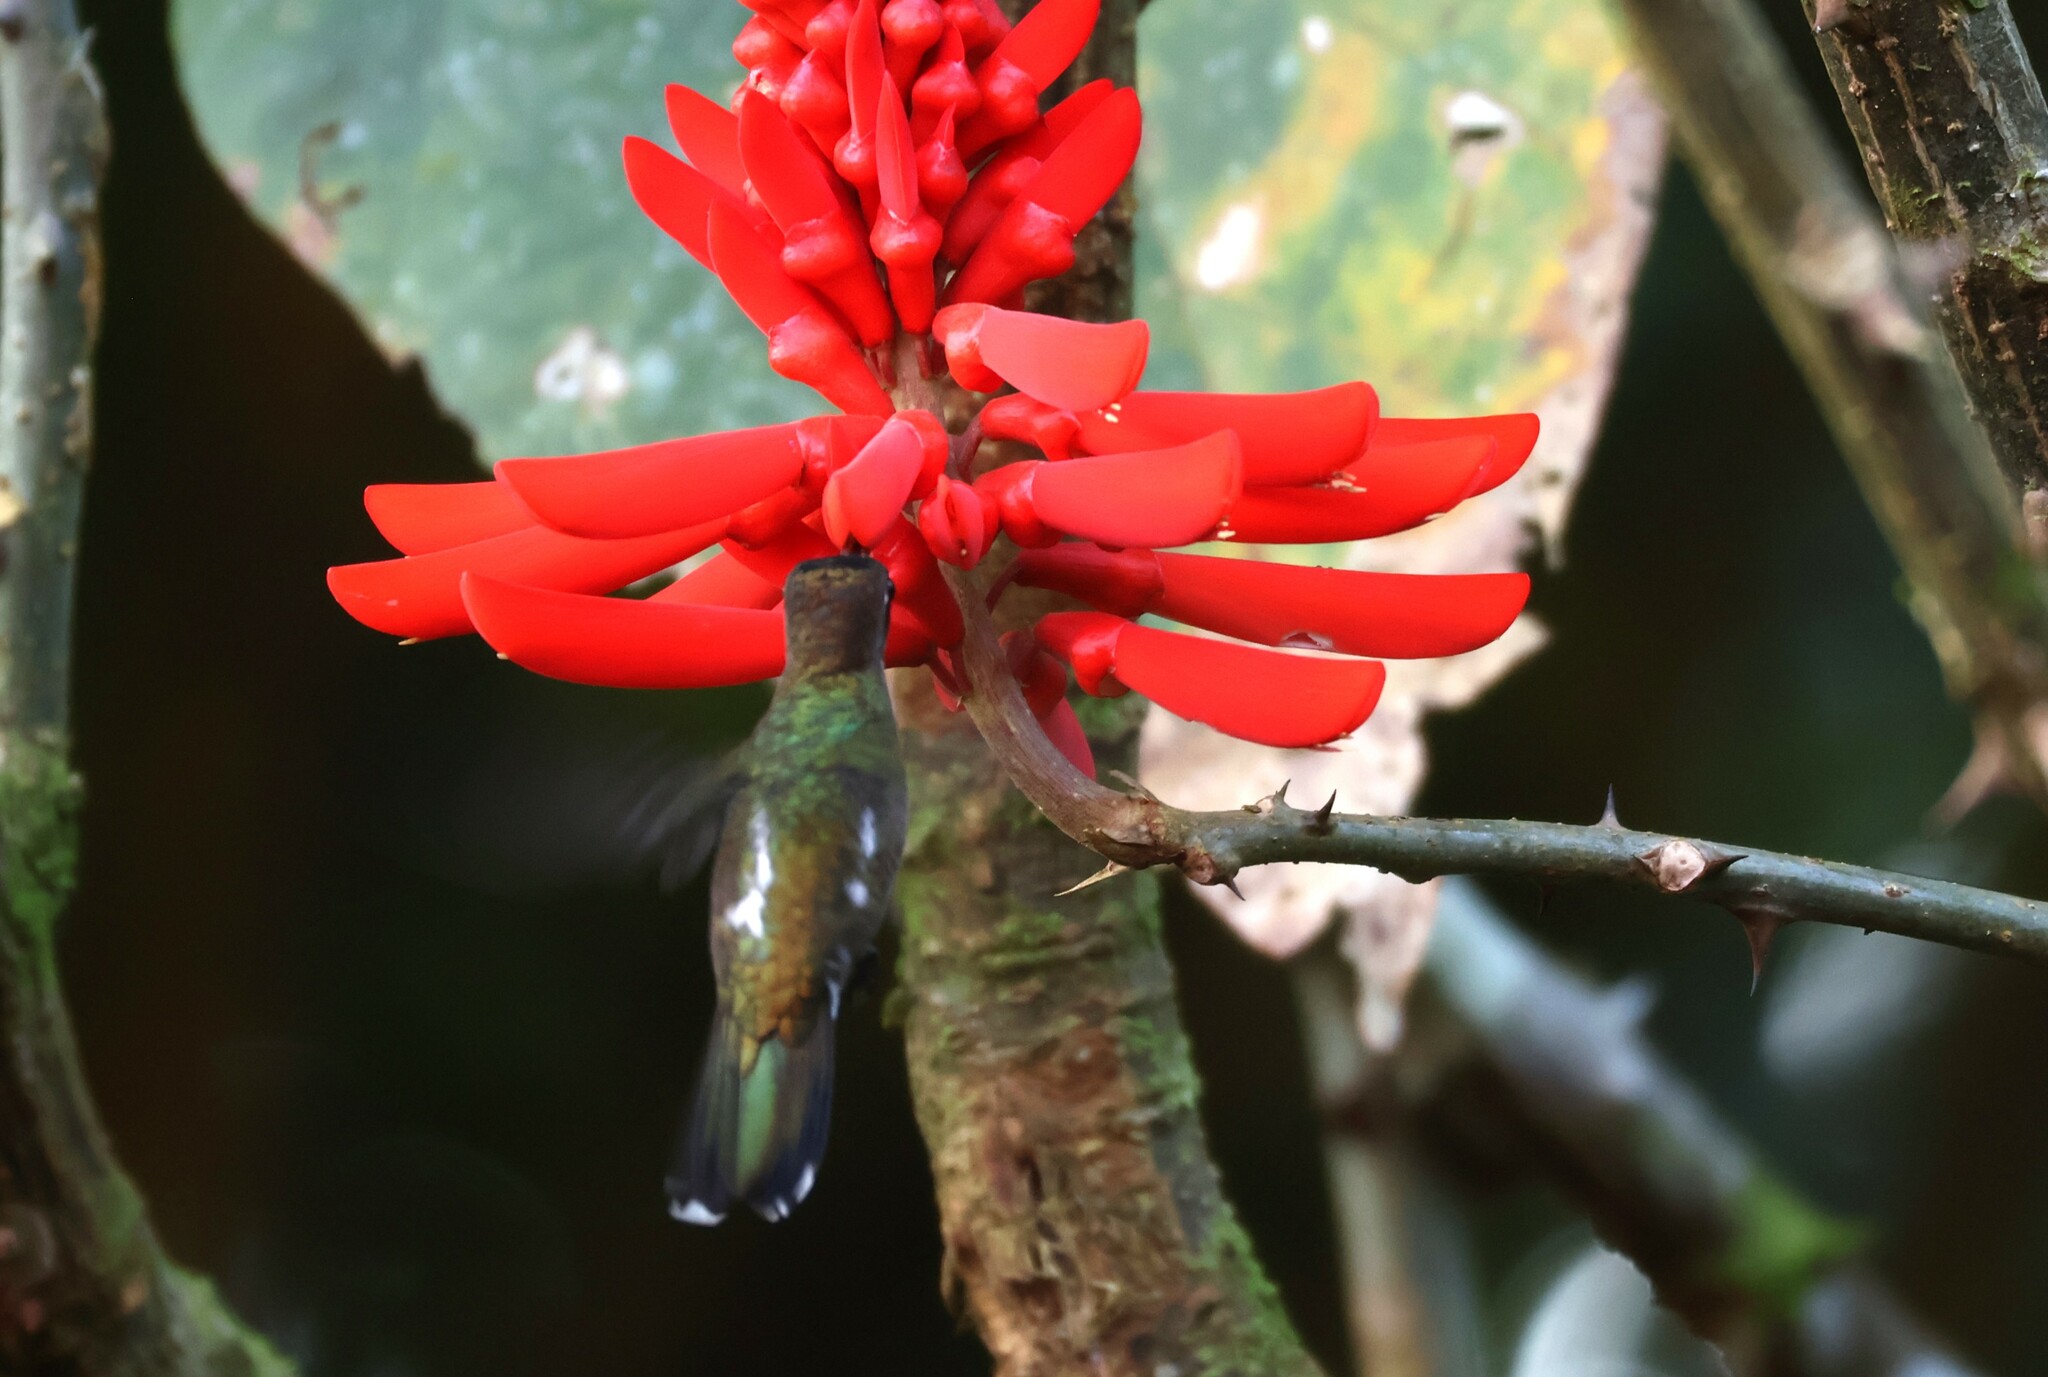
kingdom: Animalia
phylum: Chordata
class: Aves
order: Apodiformes
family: Trochilidae
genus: Heliomaster
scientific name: Heliomaster longirostris
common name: Long-billed starthroat
